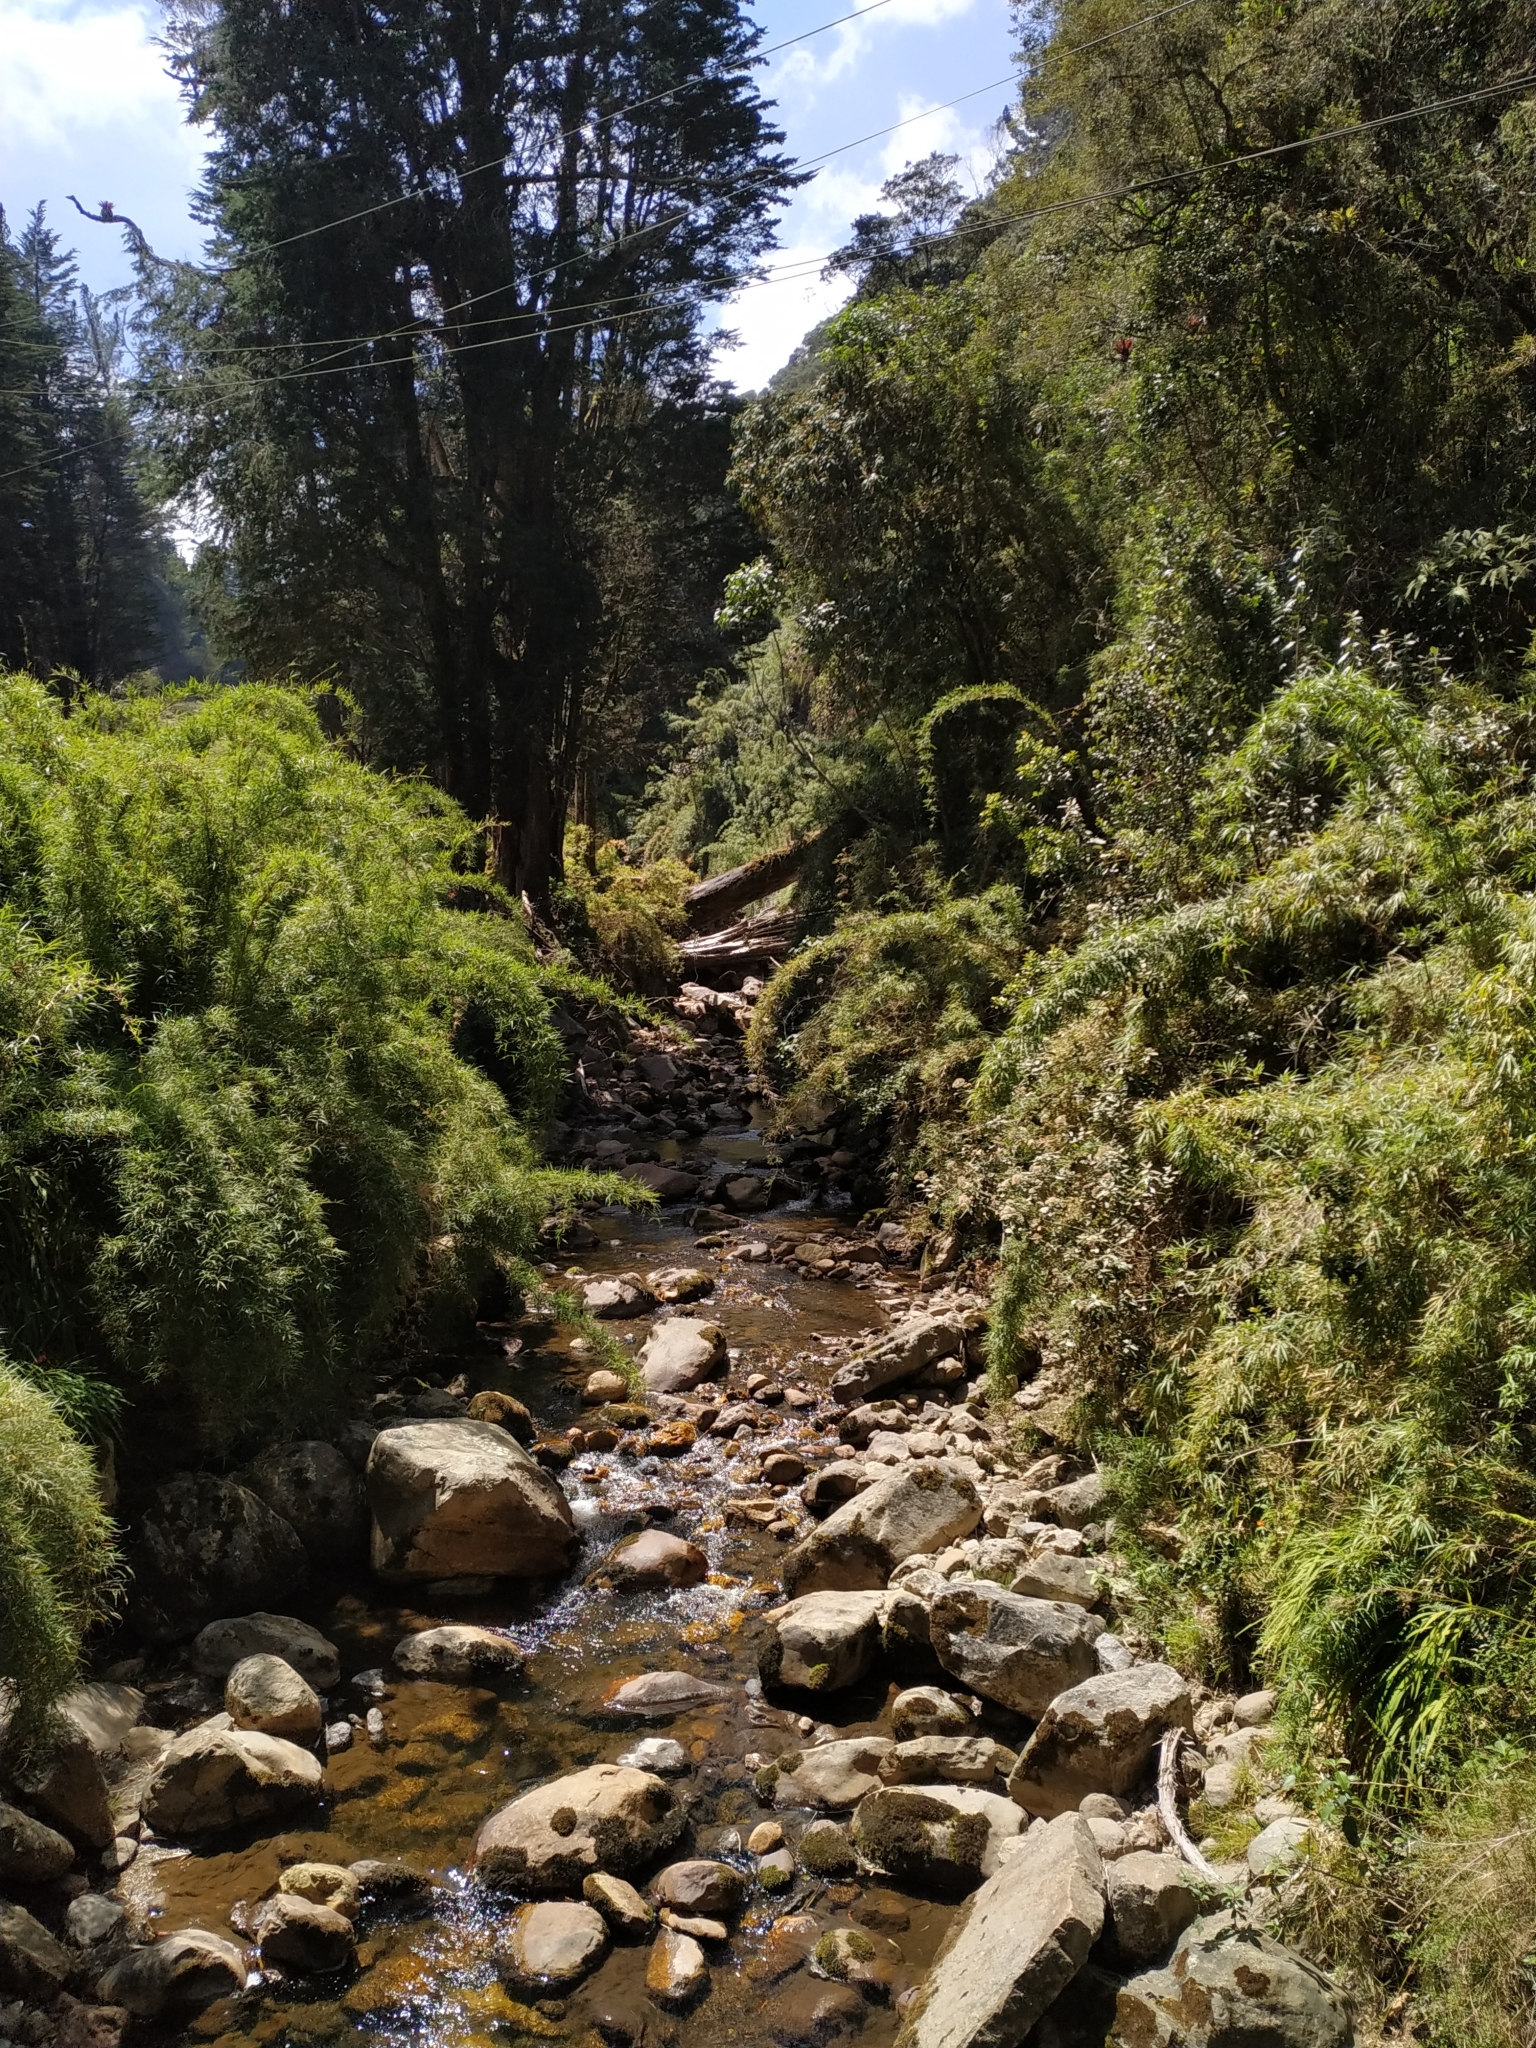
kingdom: Plantae
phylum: Tracheophyta
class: Liliopsida
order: Poales
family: Poaceae
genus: Chusquea
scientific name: Chusquea scandens
